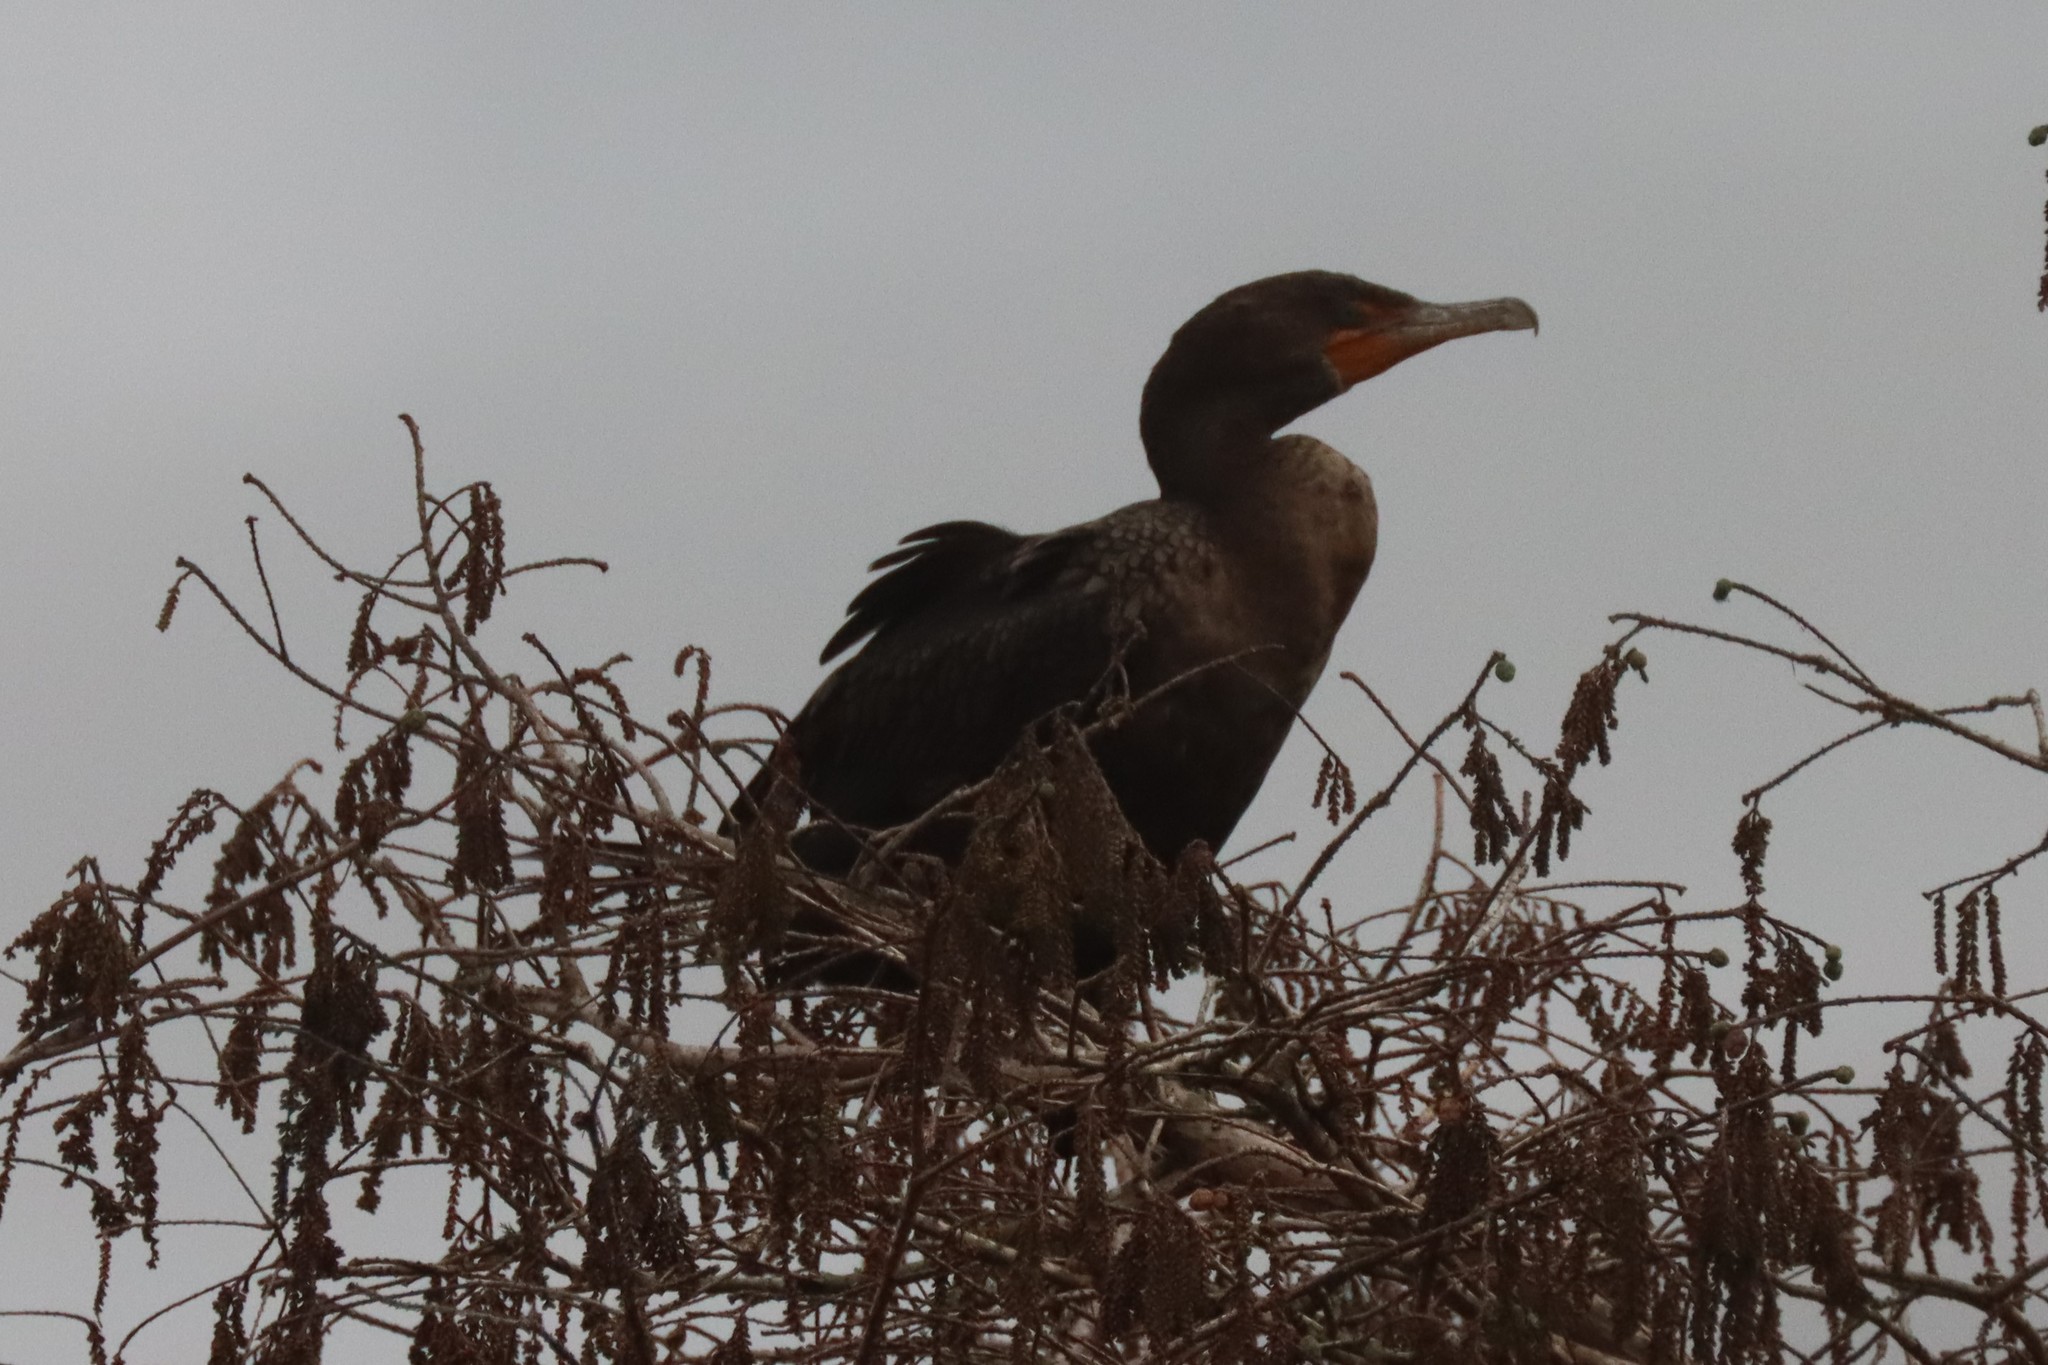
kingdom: Animalia
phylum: Chordata
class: Aves
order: Suliformes
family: Phalacrocoracidae
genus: Phalacrocorax
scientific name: Phalacrocorax auritus
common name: Double-crested cormorant
